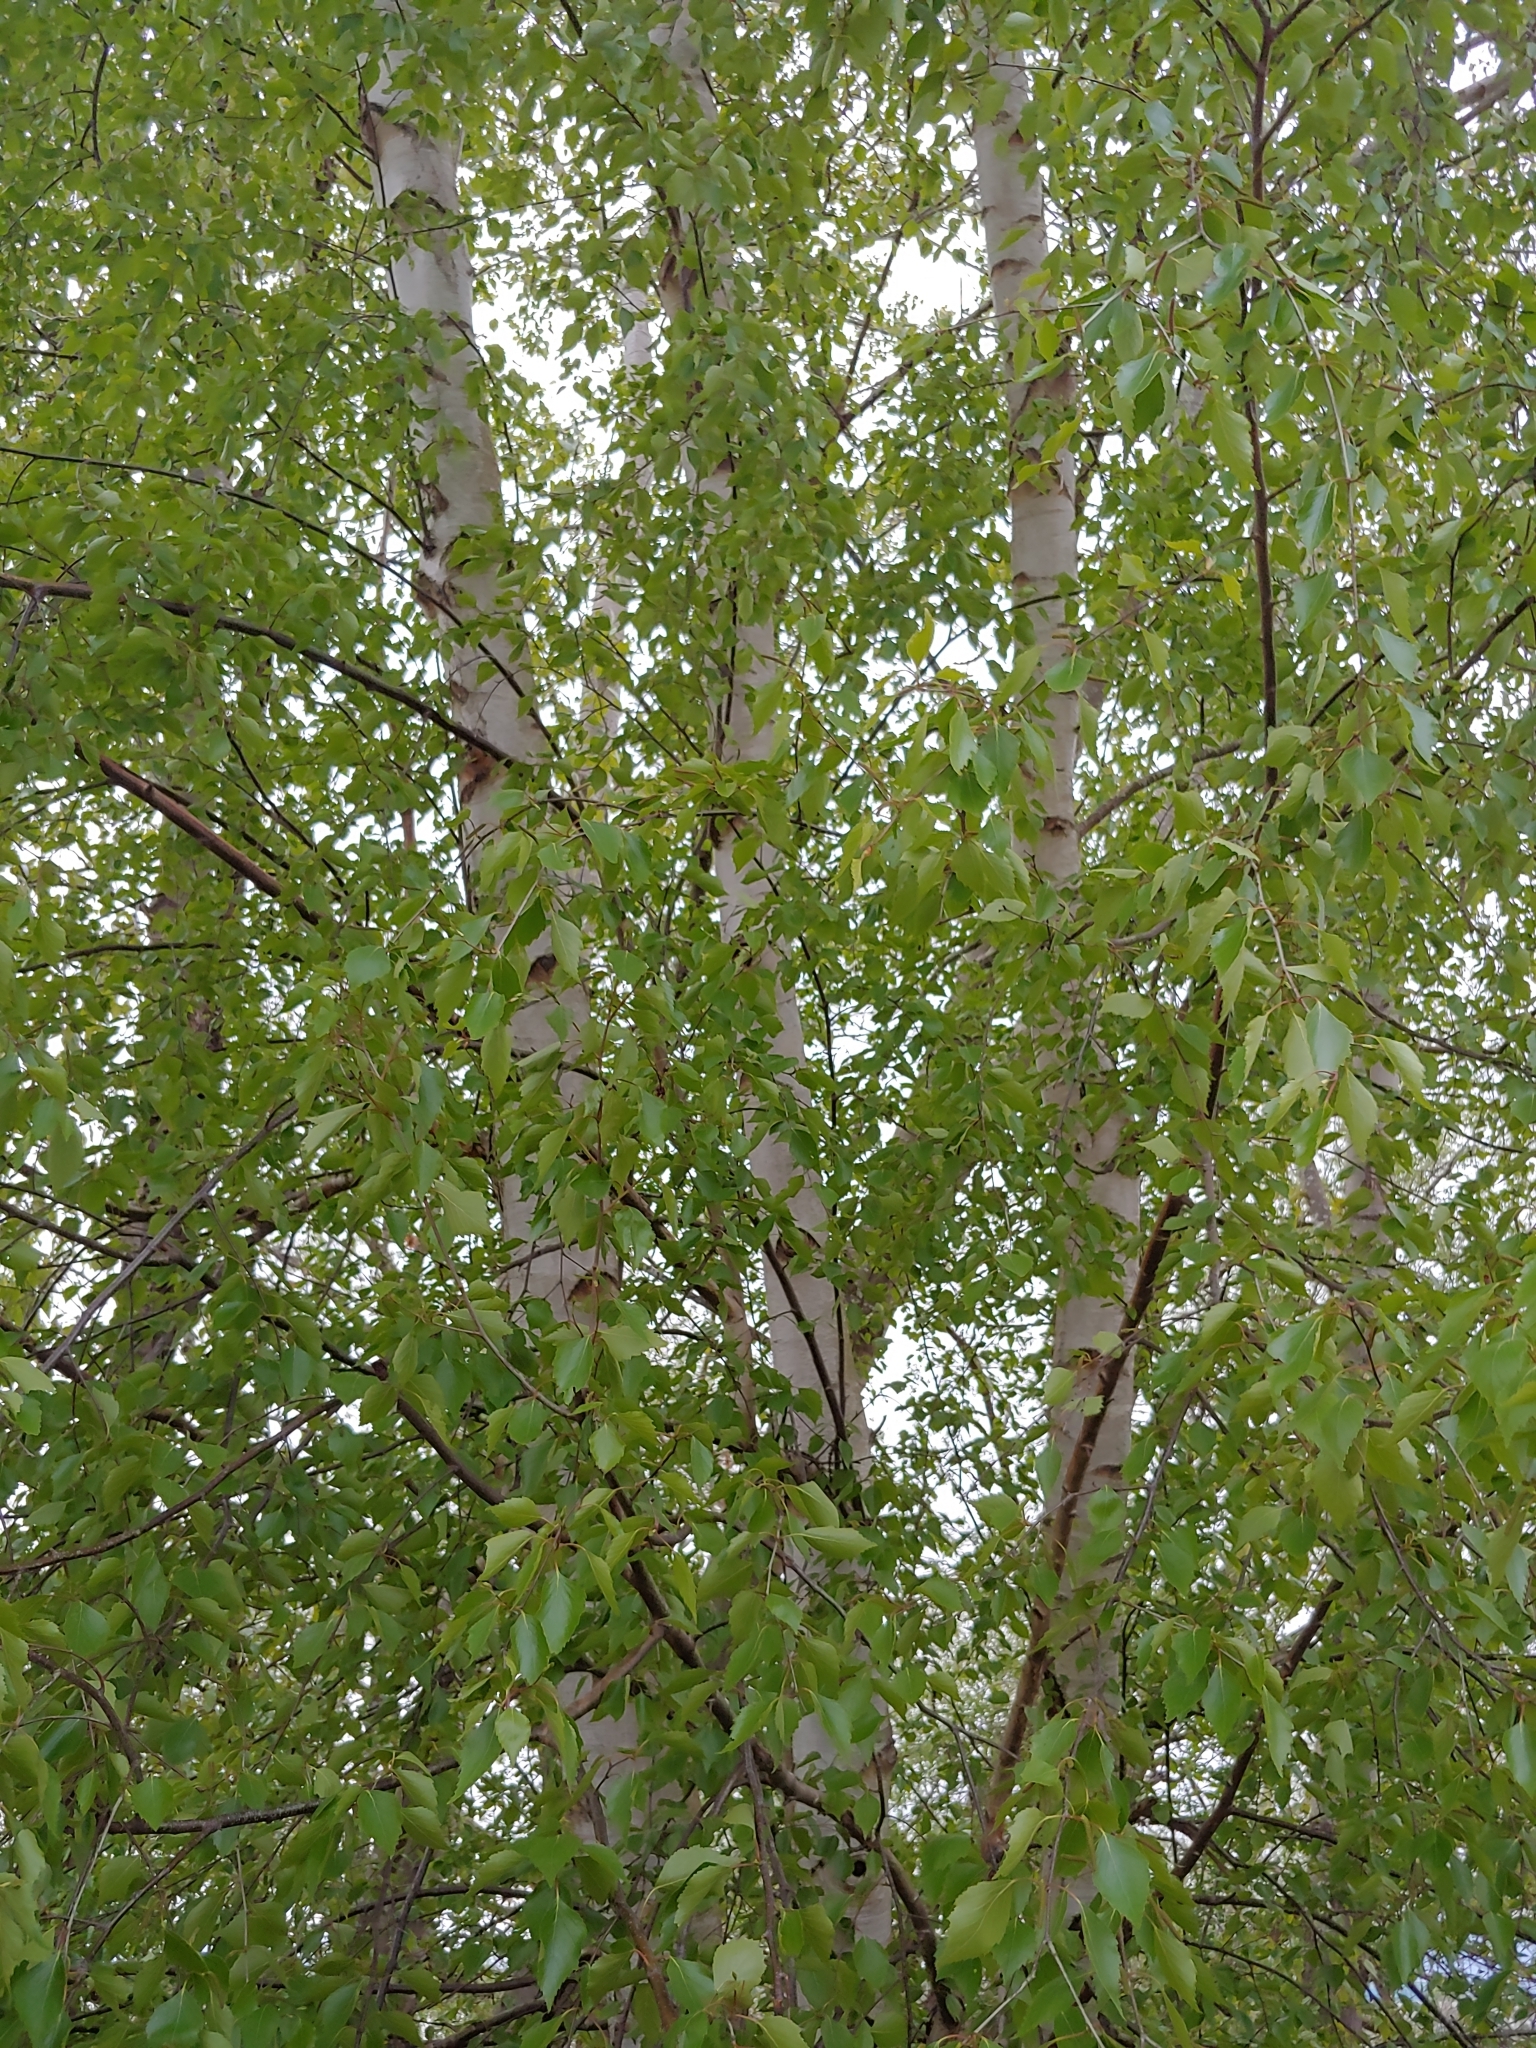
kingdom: Plantae
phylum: Tracheophyta
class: Magnoliopsida
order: Fagales
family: Betulaceae
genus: Betula
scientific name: Betula papyrifera
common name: Paper birch
